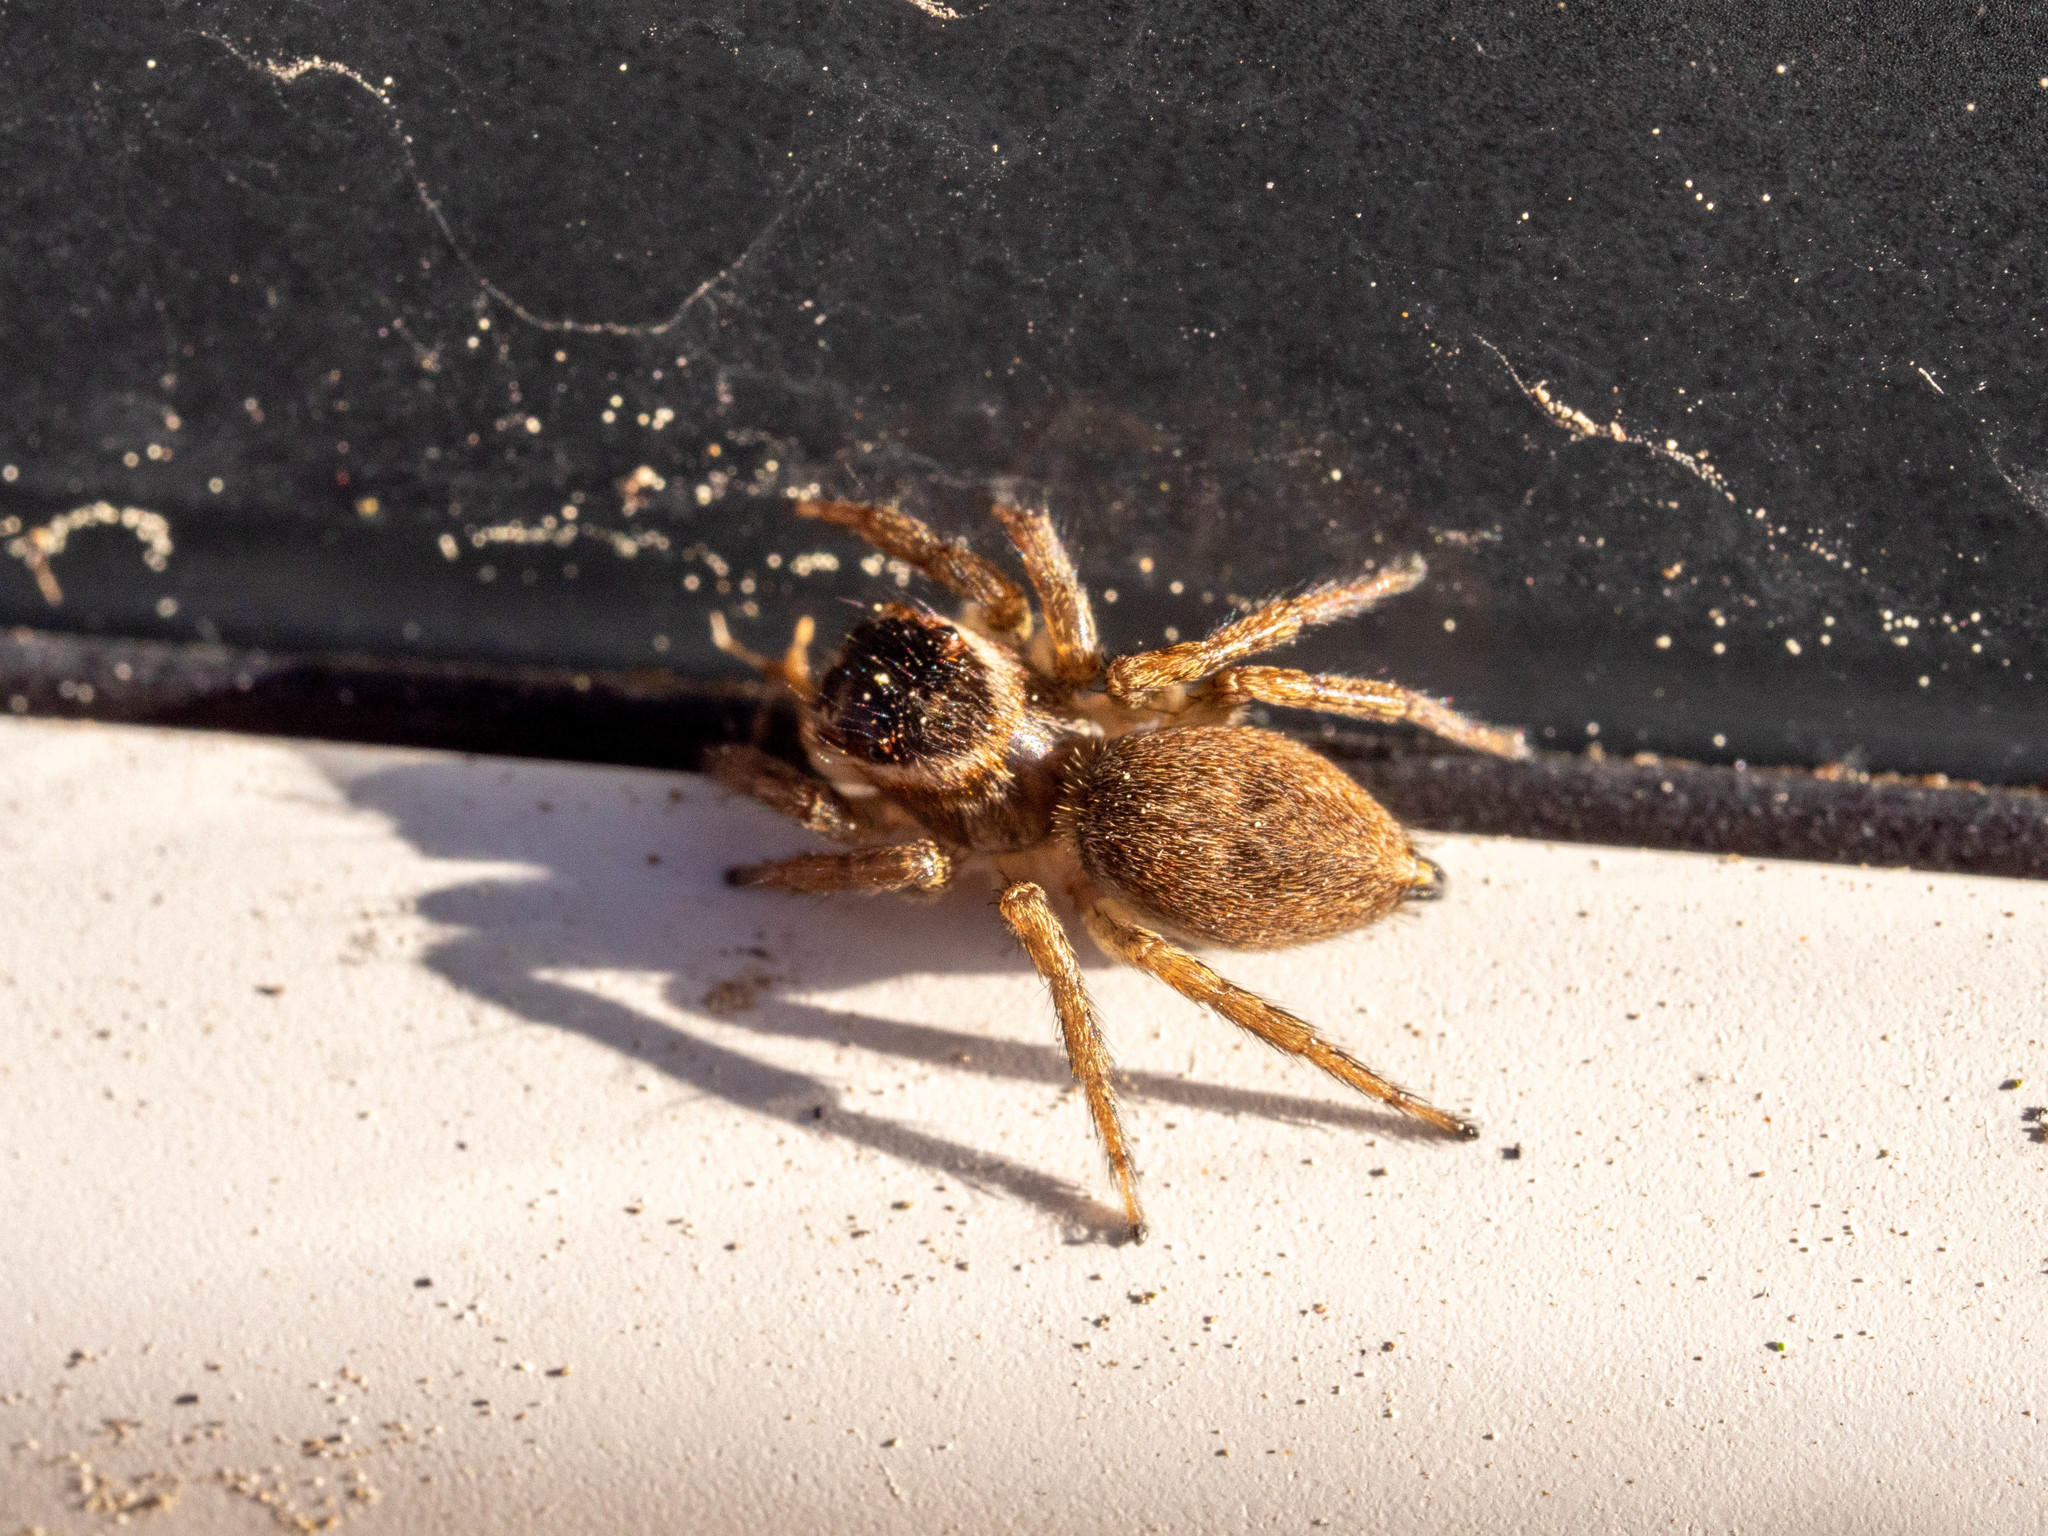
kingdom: Animalia
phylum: Arthropoda
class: Arachnida
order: Araneae
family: Salticidae
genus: Maratus
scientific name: Maratus griseus
